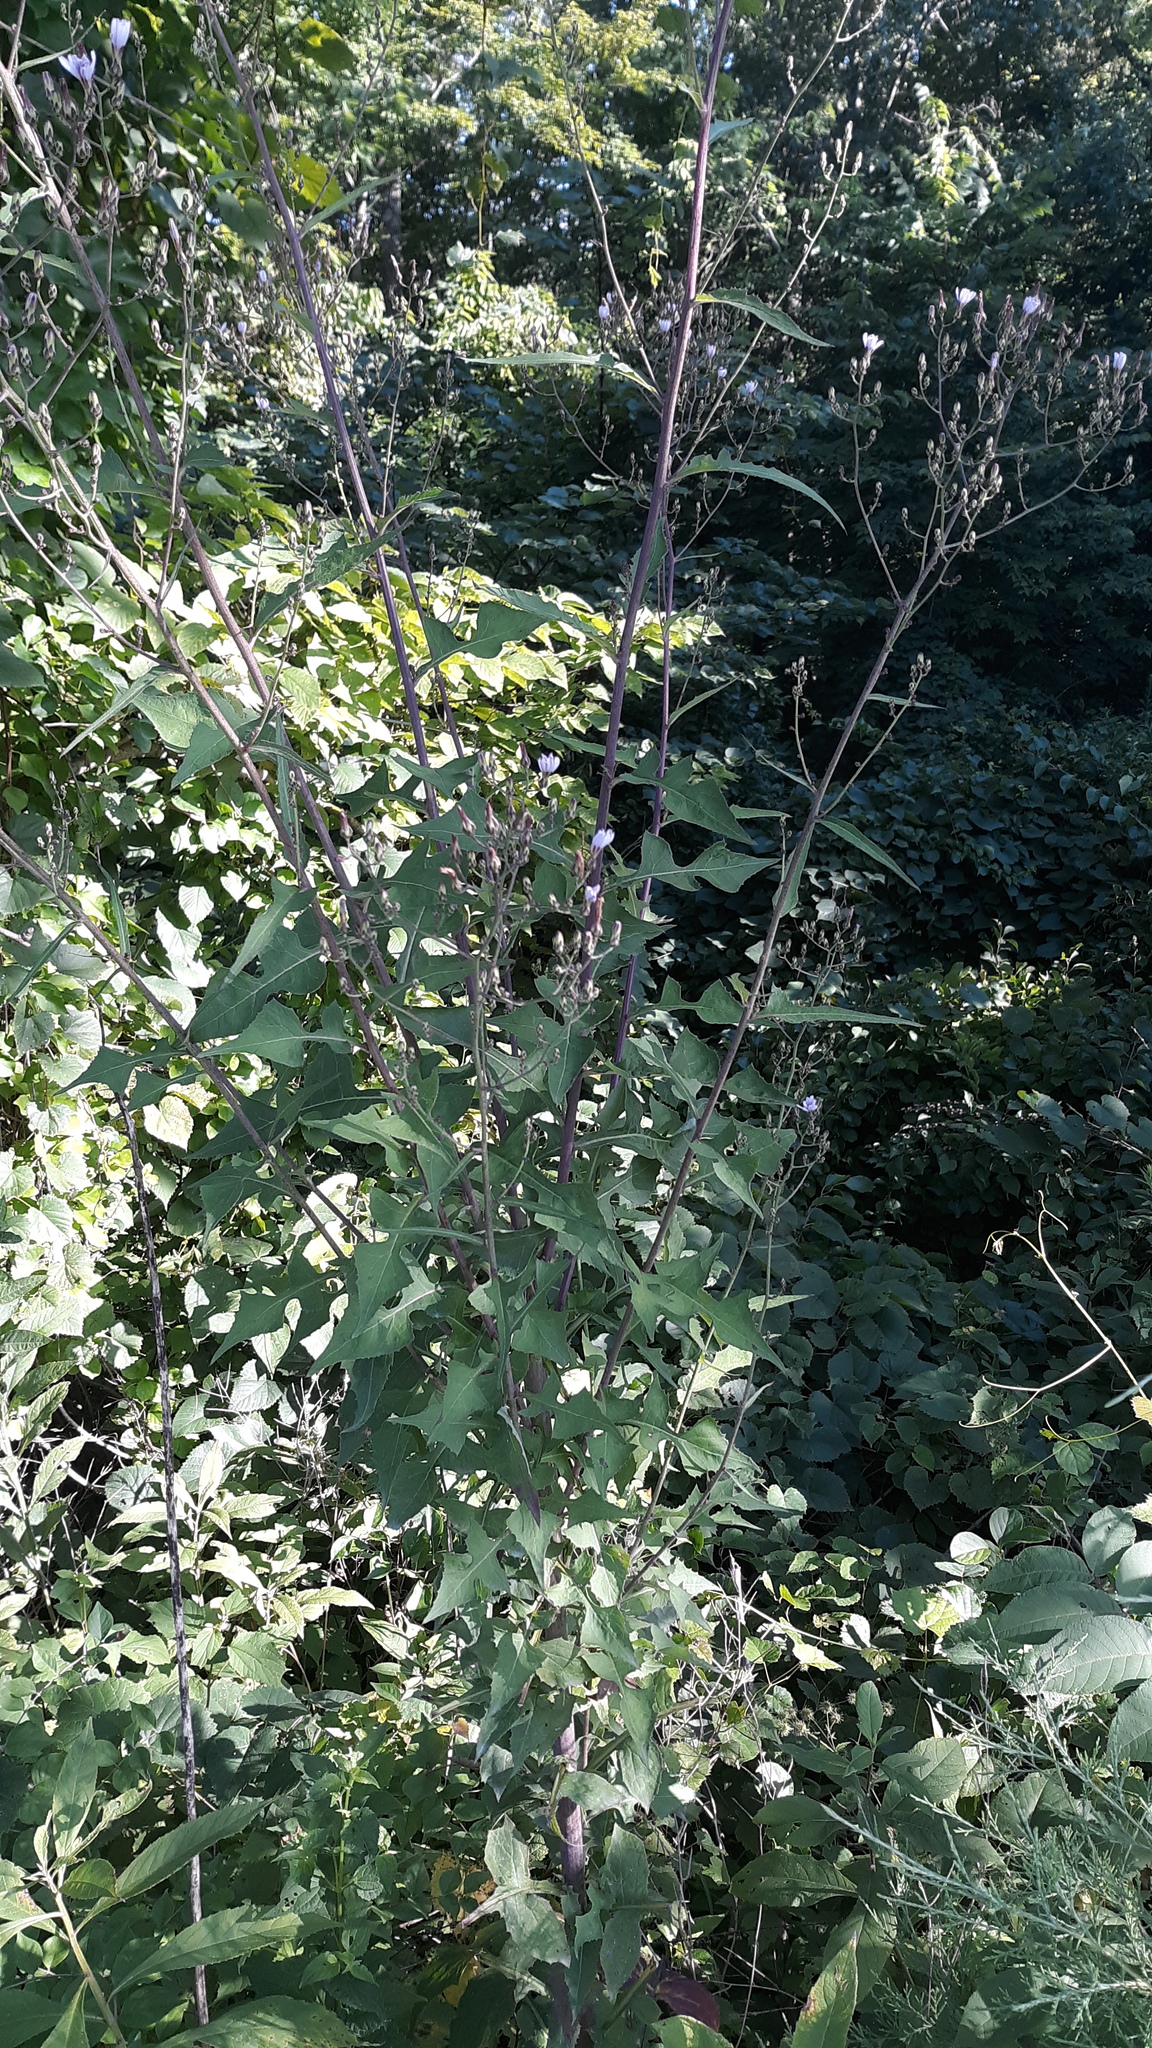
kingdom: Plantae
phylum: Tracheophyta
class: Magnoliopsida
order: Asterales
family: Asteraceae
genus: Lactuca
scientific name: Lactuca floridana
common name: Woodland lettuce
